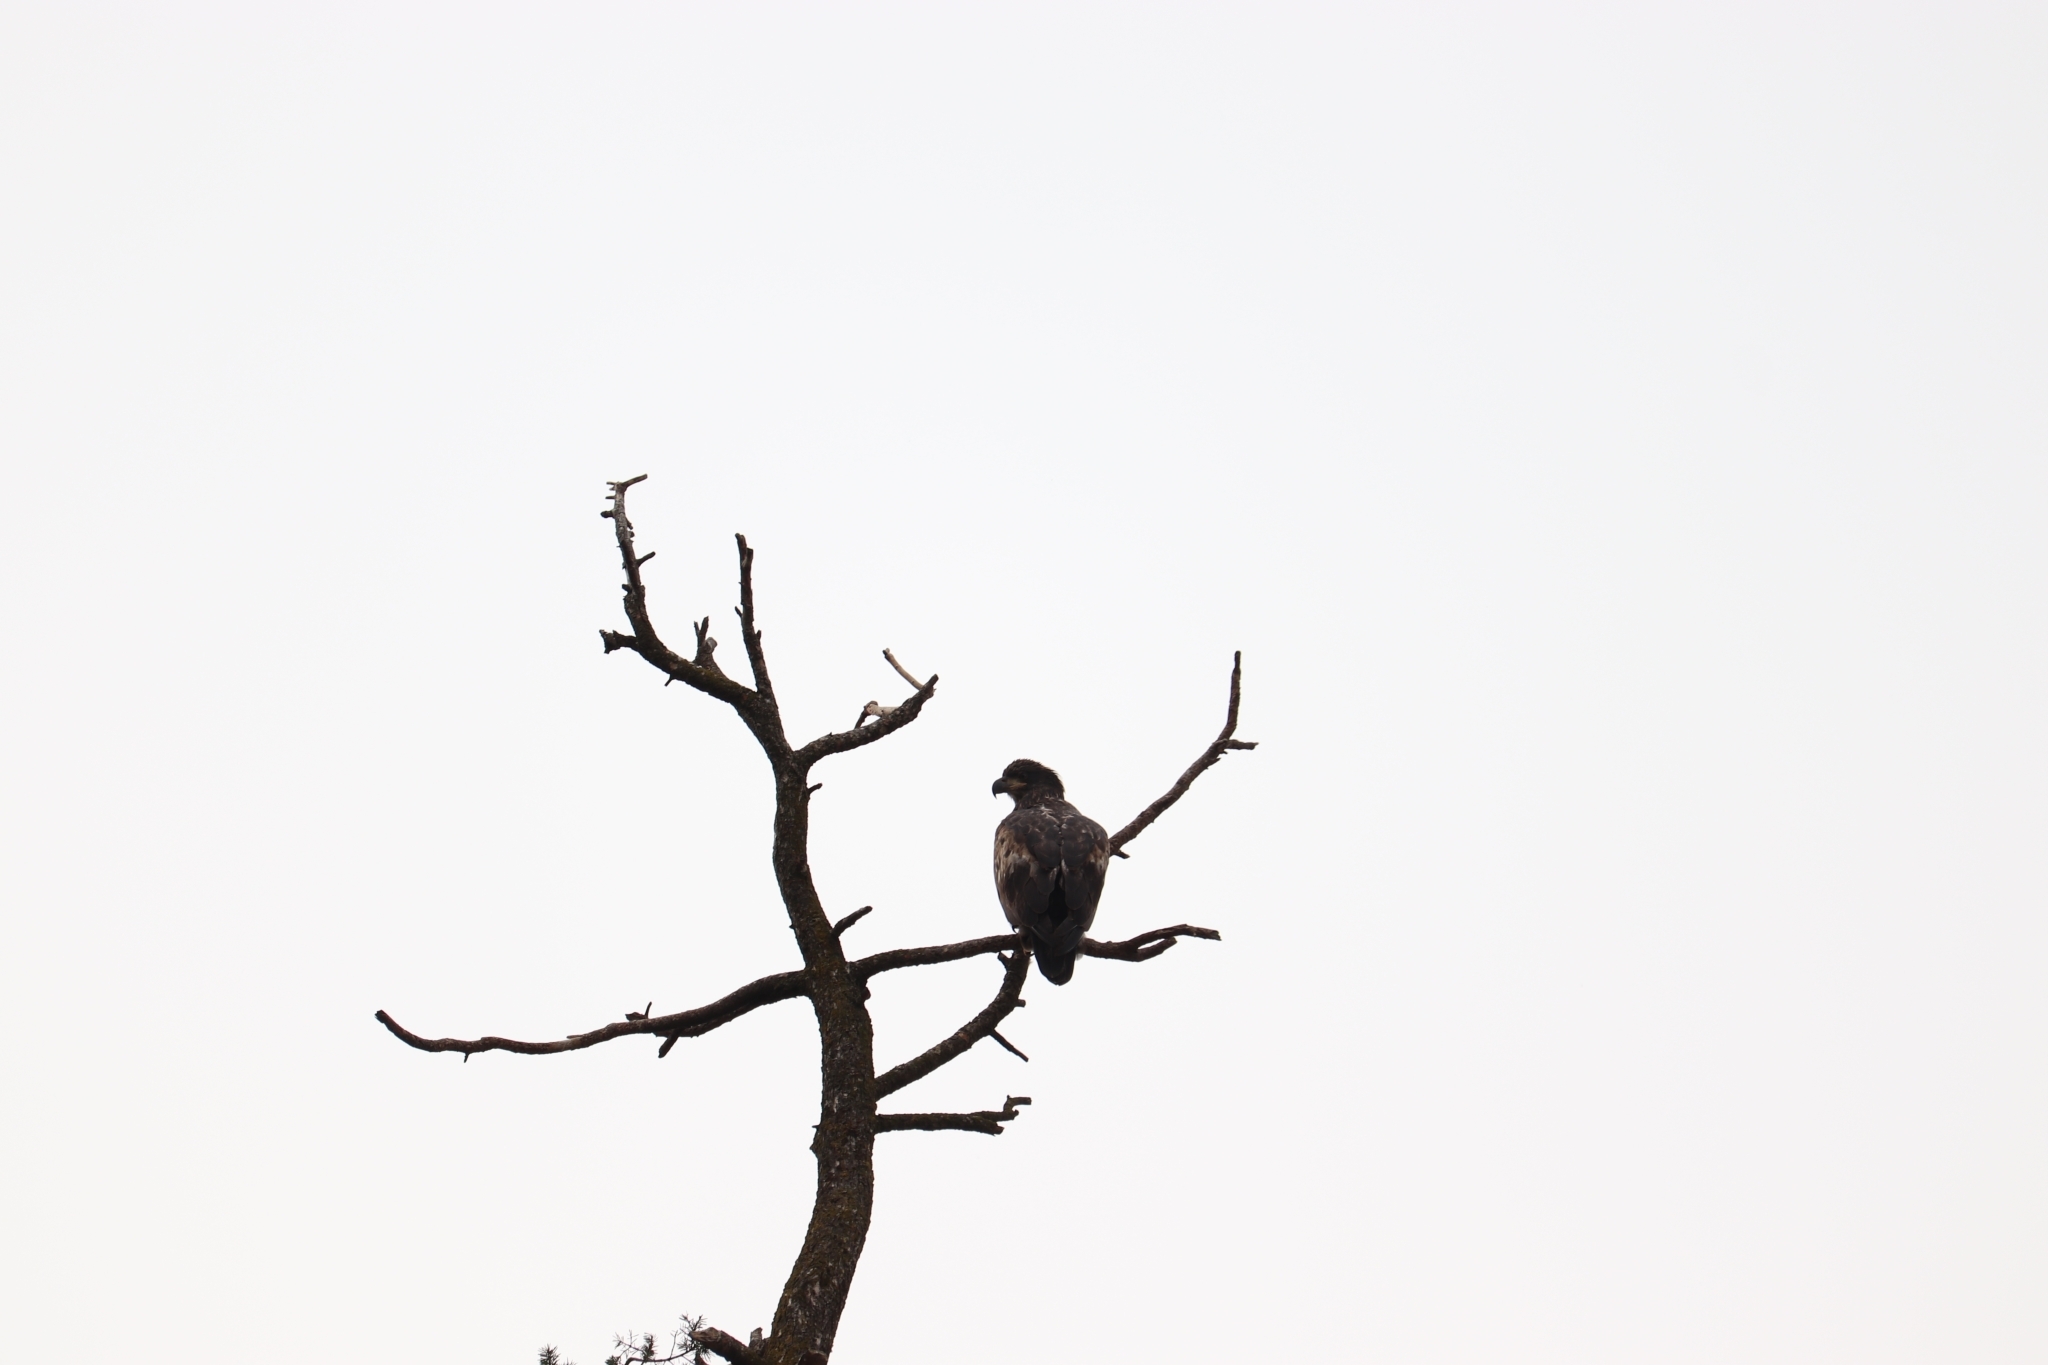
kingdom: Animalia
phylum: Chordata
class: Aves
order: Accipitriformes
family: Accipitridae
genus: Haliaeetus
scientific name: Haliaeetus leucocephalus
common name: Bald eagle
